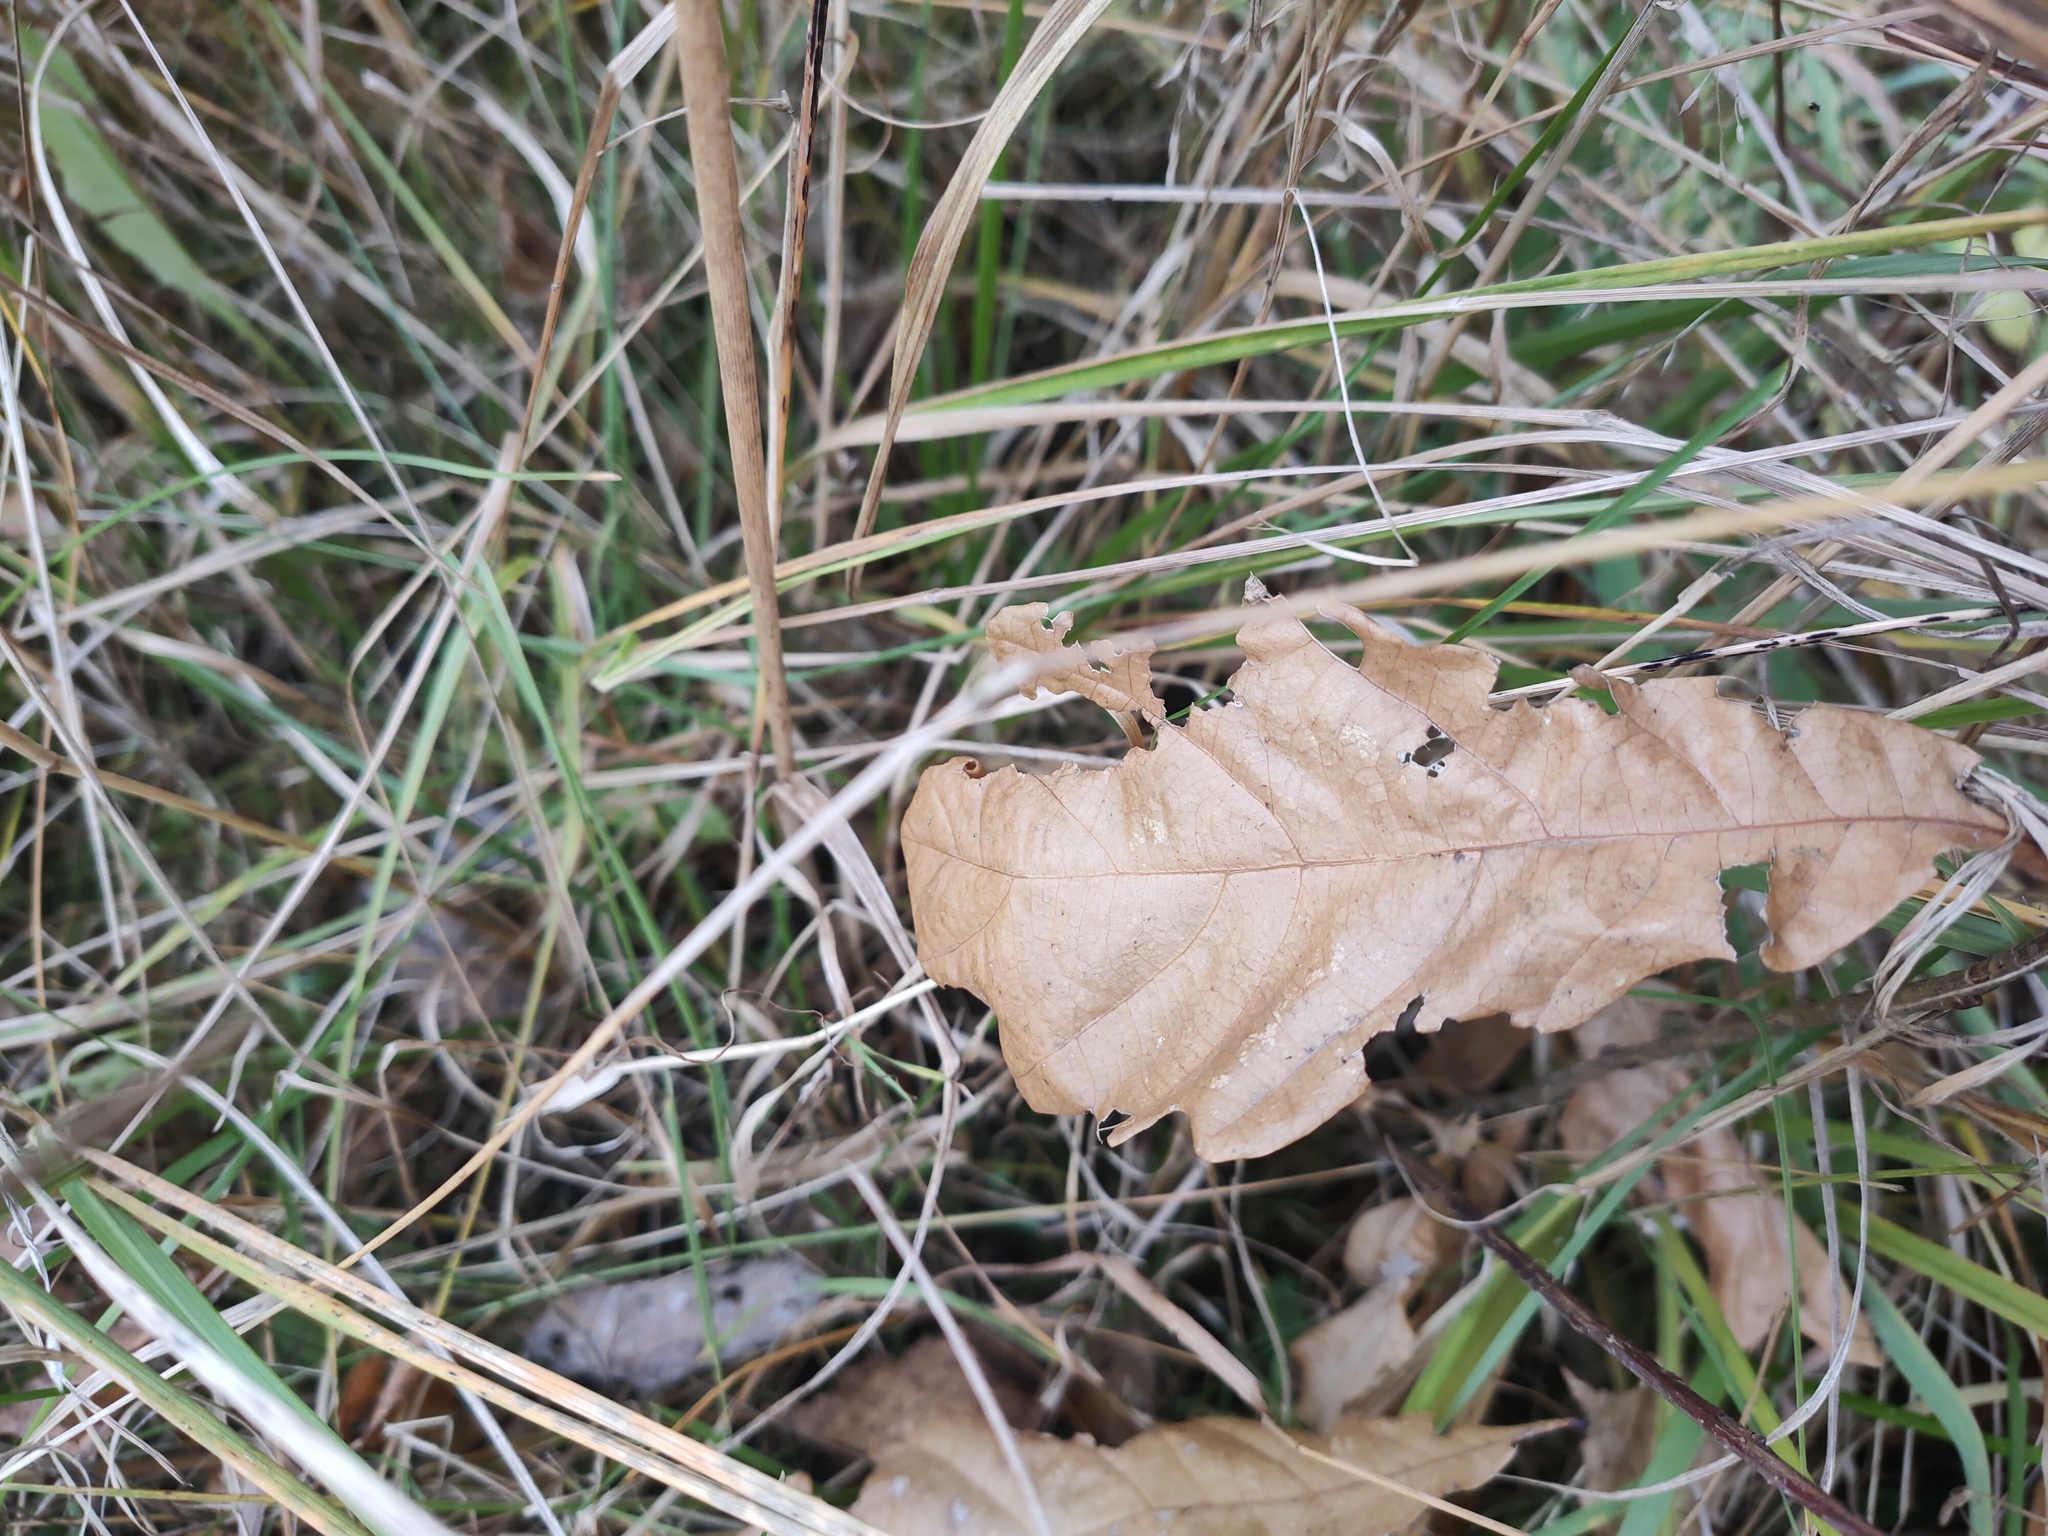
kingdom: Plantae
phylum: Tracheophyta
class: Magnoliopsida
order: Fagales
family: Fagaceae
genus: Quercus
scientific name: Quercus robur
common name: Pedunculate oak
